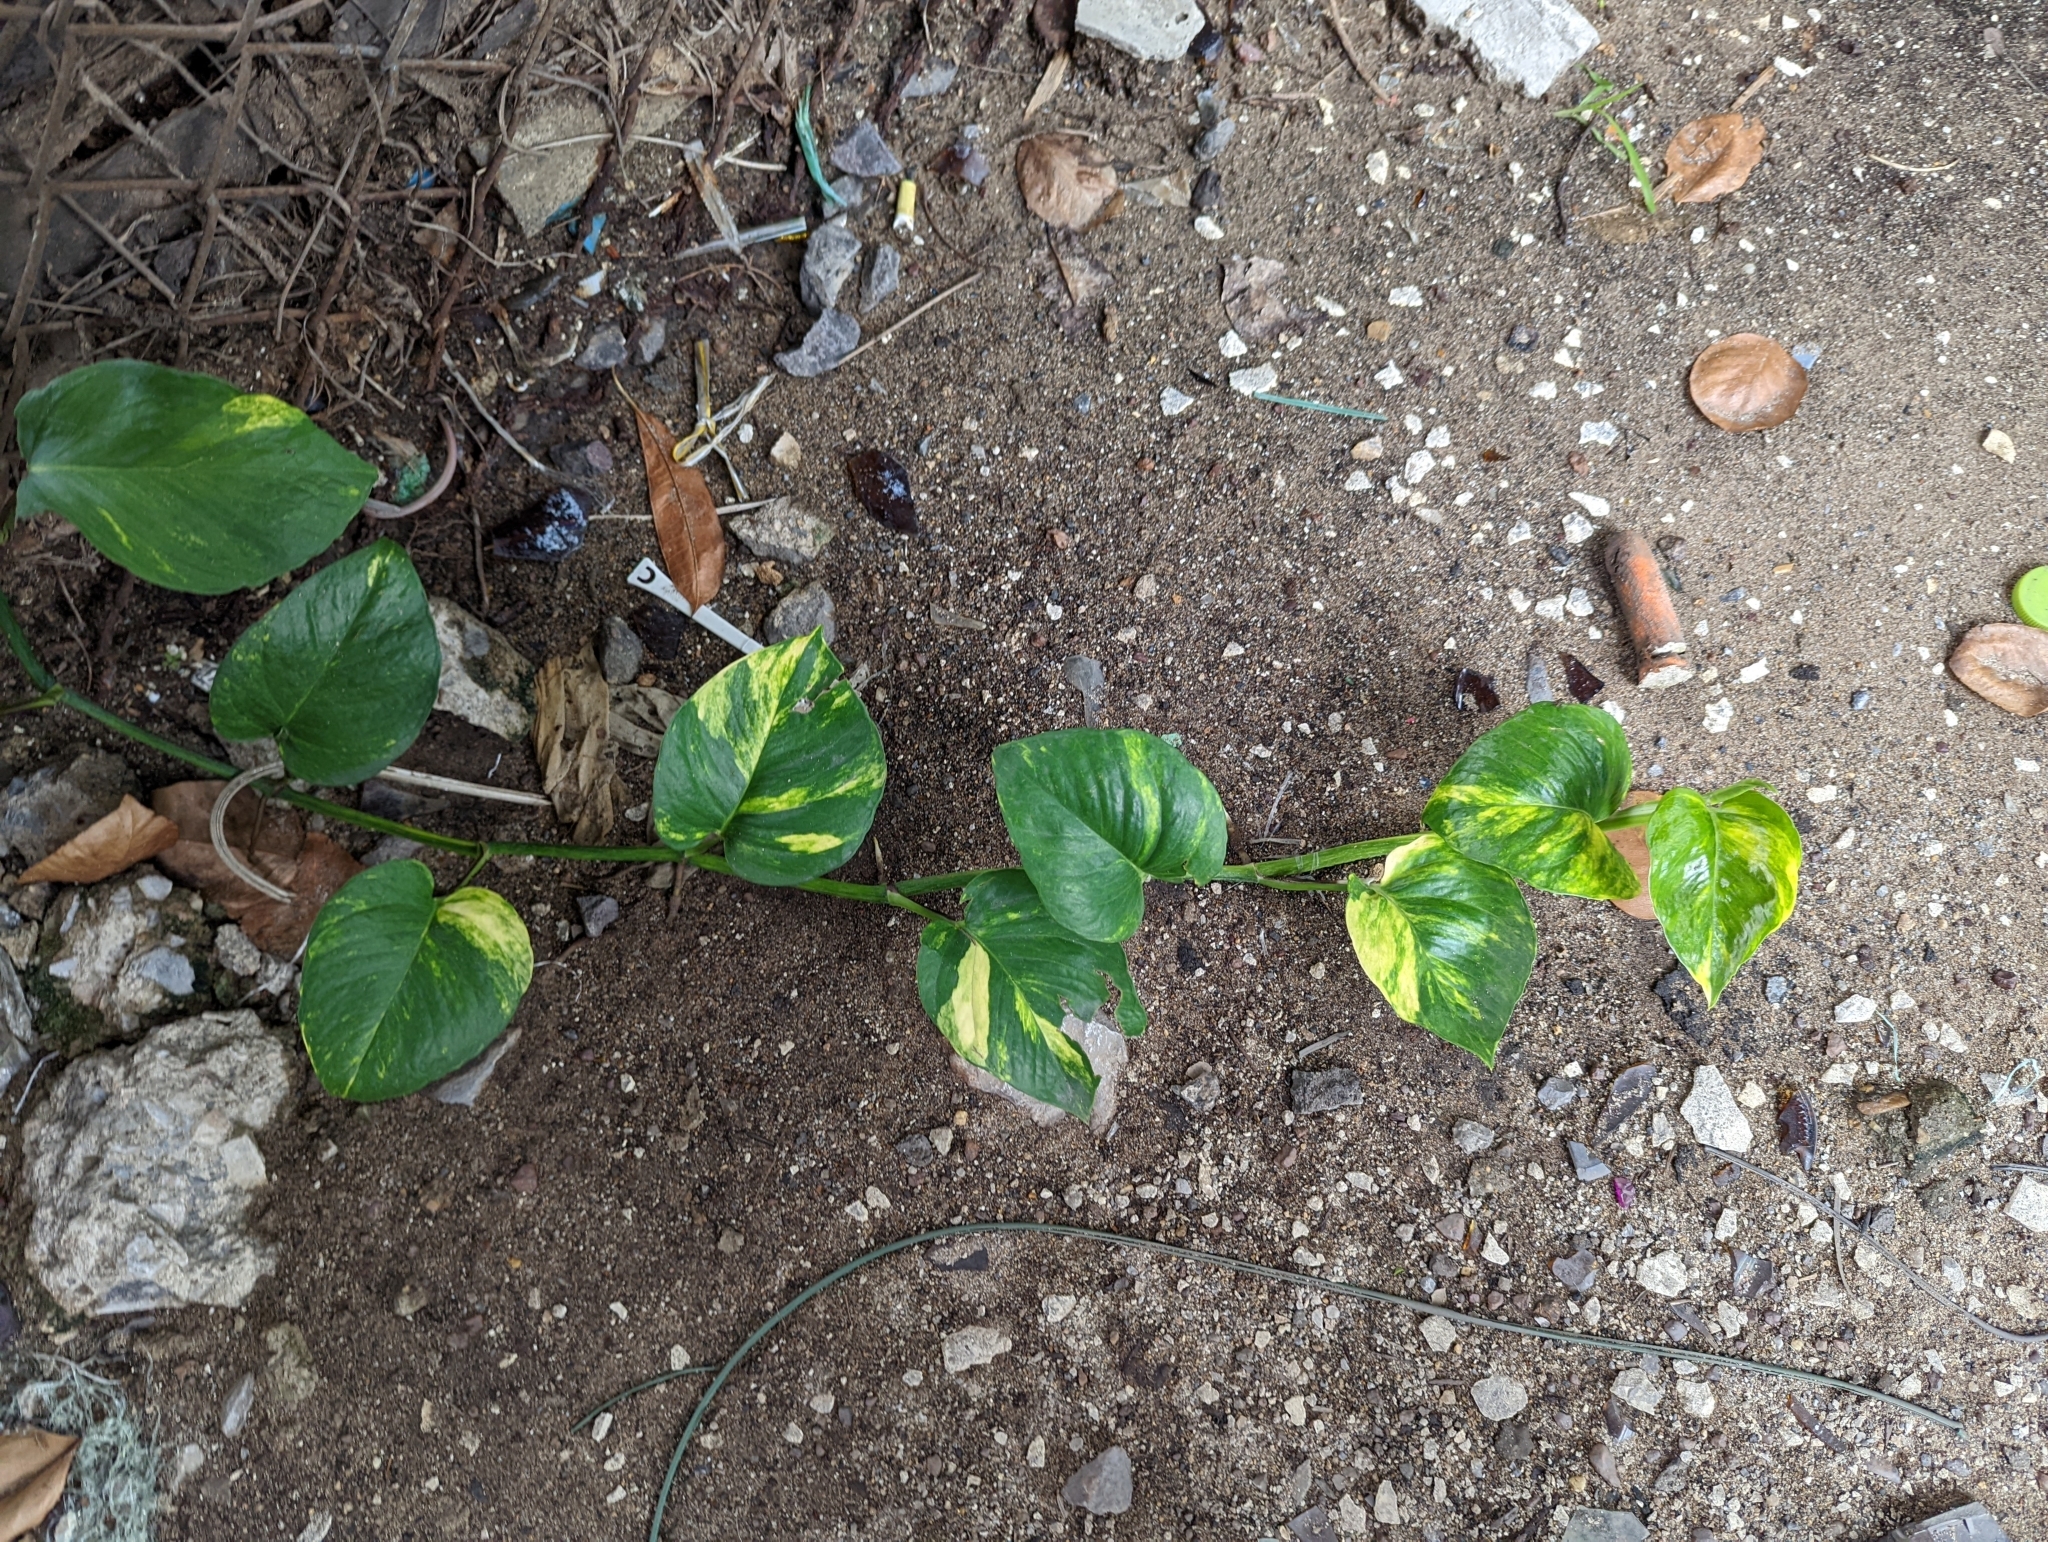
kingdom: Plantae
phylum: Tracheophyta
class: Liliopsida
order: Alismatales
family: Araceae
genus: Epipremnum
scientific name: Epipremnum aureum
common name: Golden hunter's-robe
